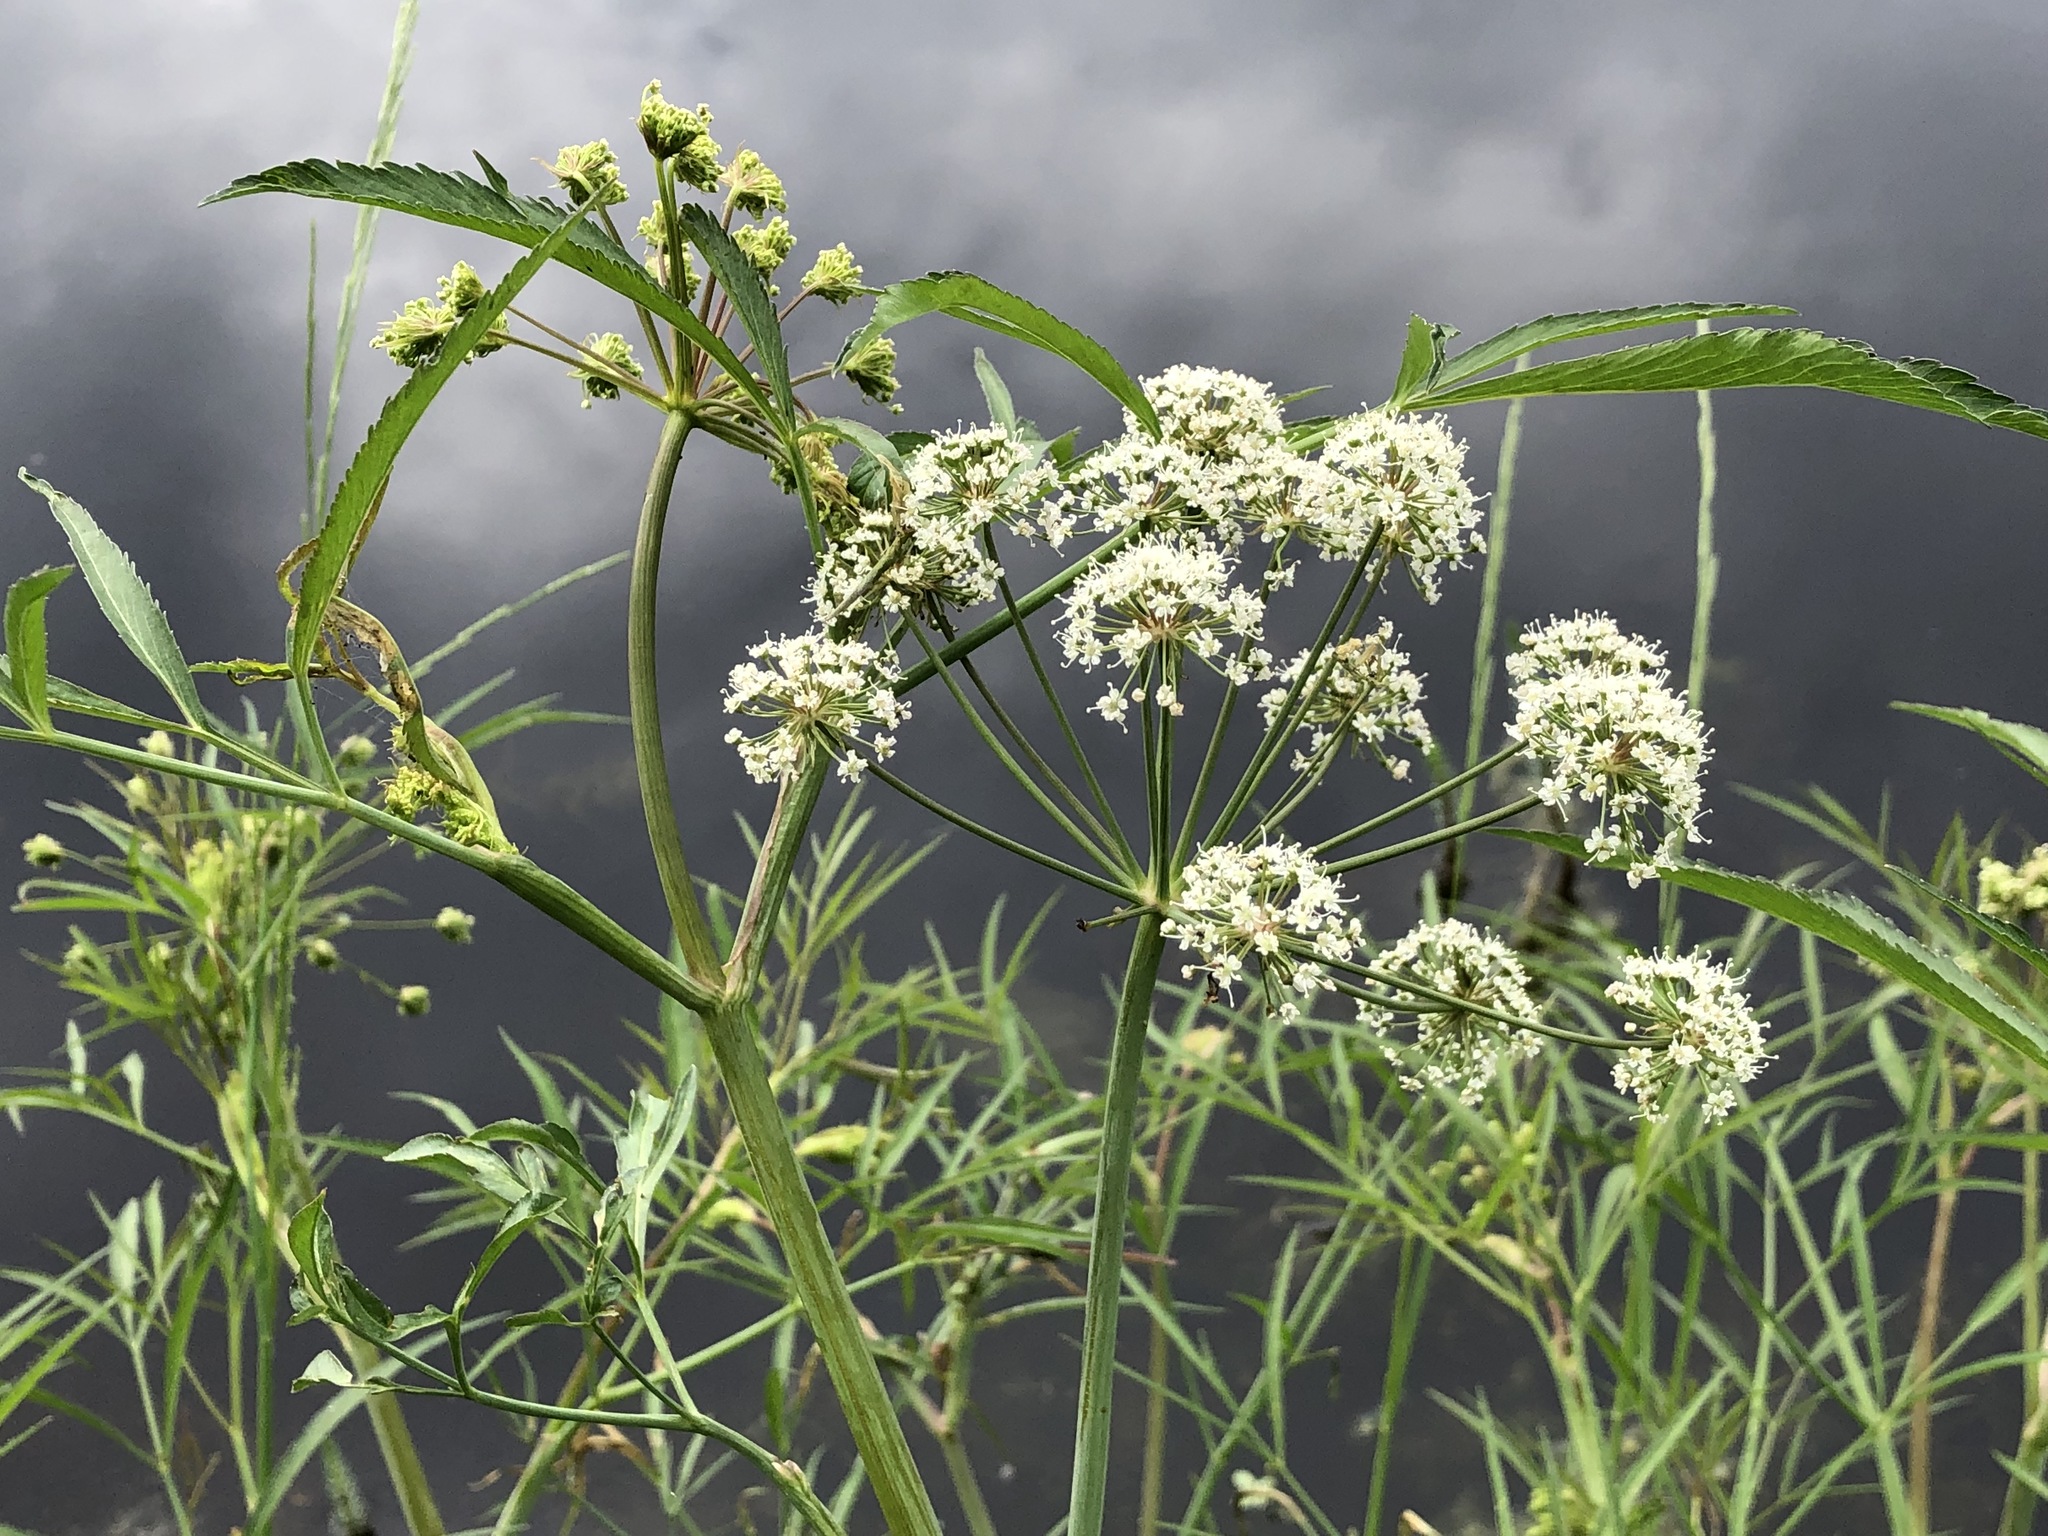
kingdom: Plantae
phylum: Tracheophyta
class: Magnoliopsida
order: Apiales
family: Apiaceae
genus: Cicuta
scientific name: Cicuta virosa
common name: Cowbane
